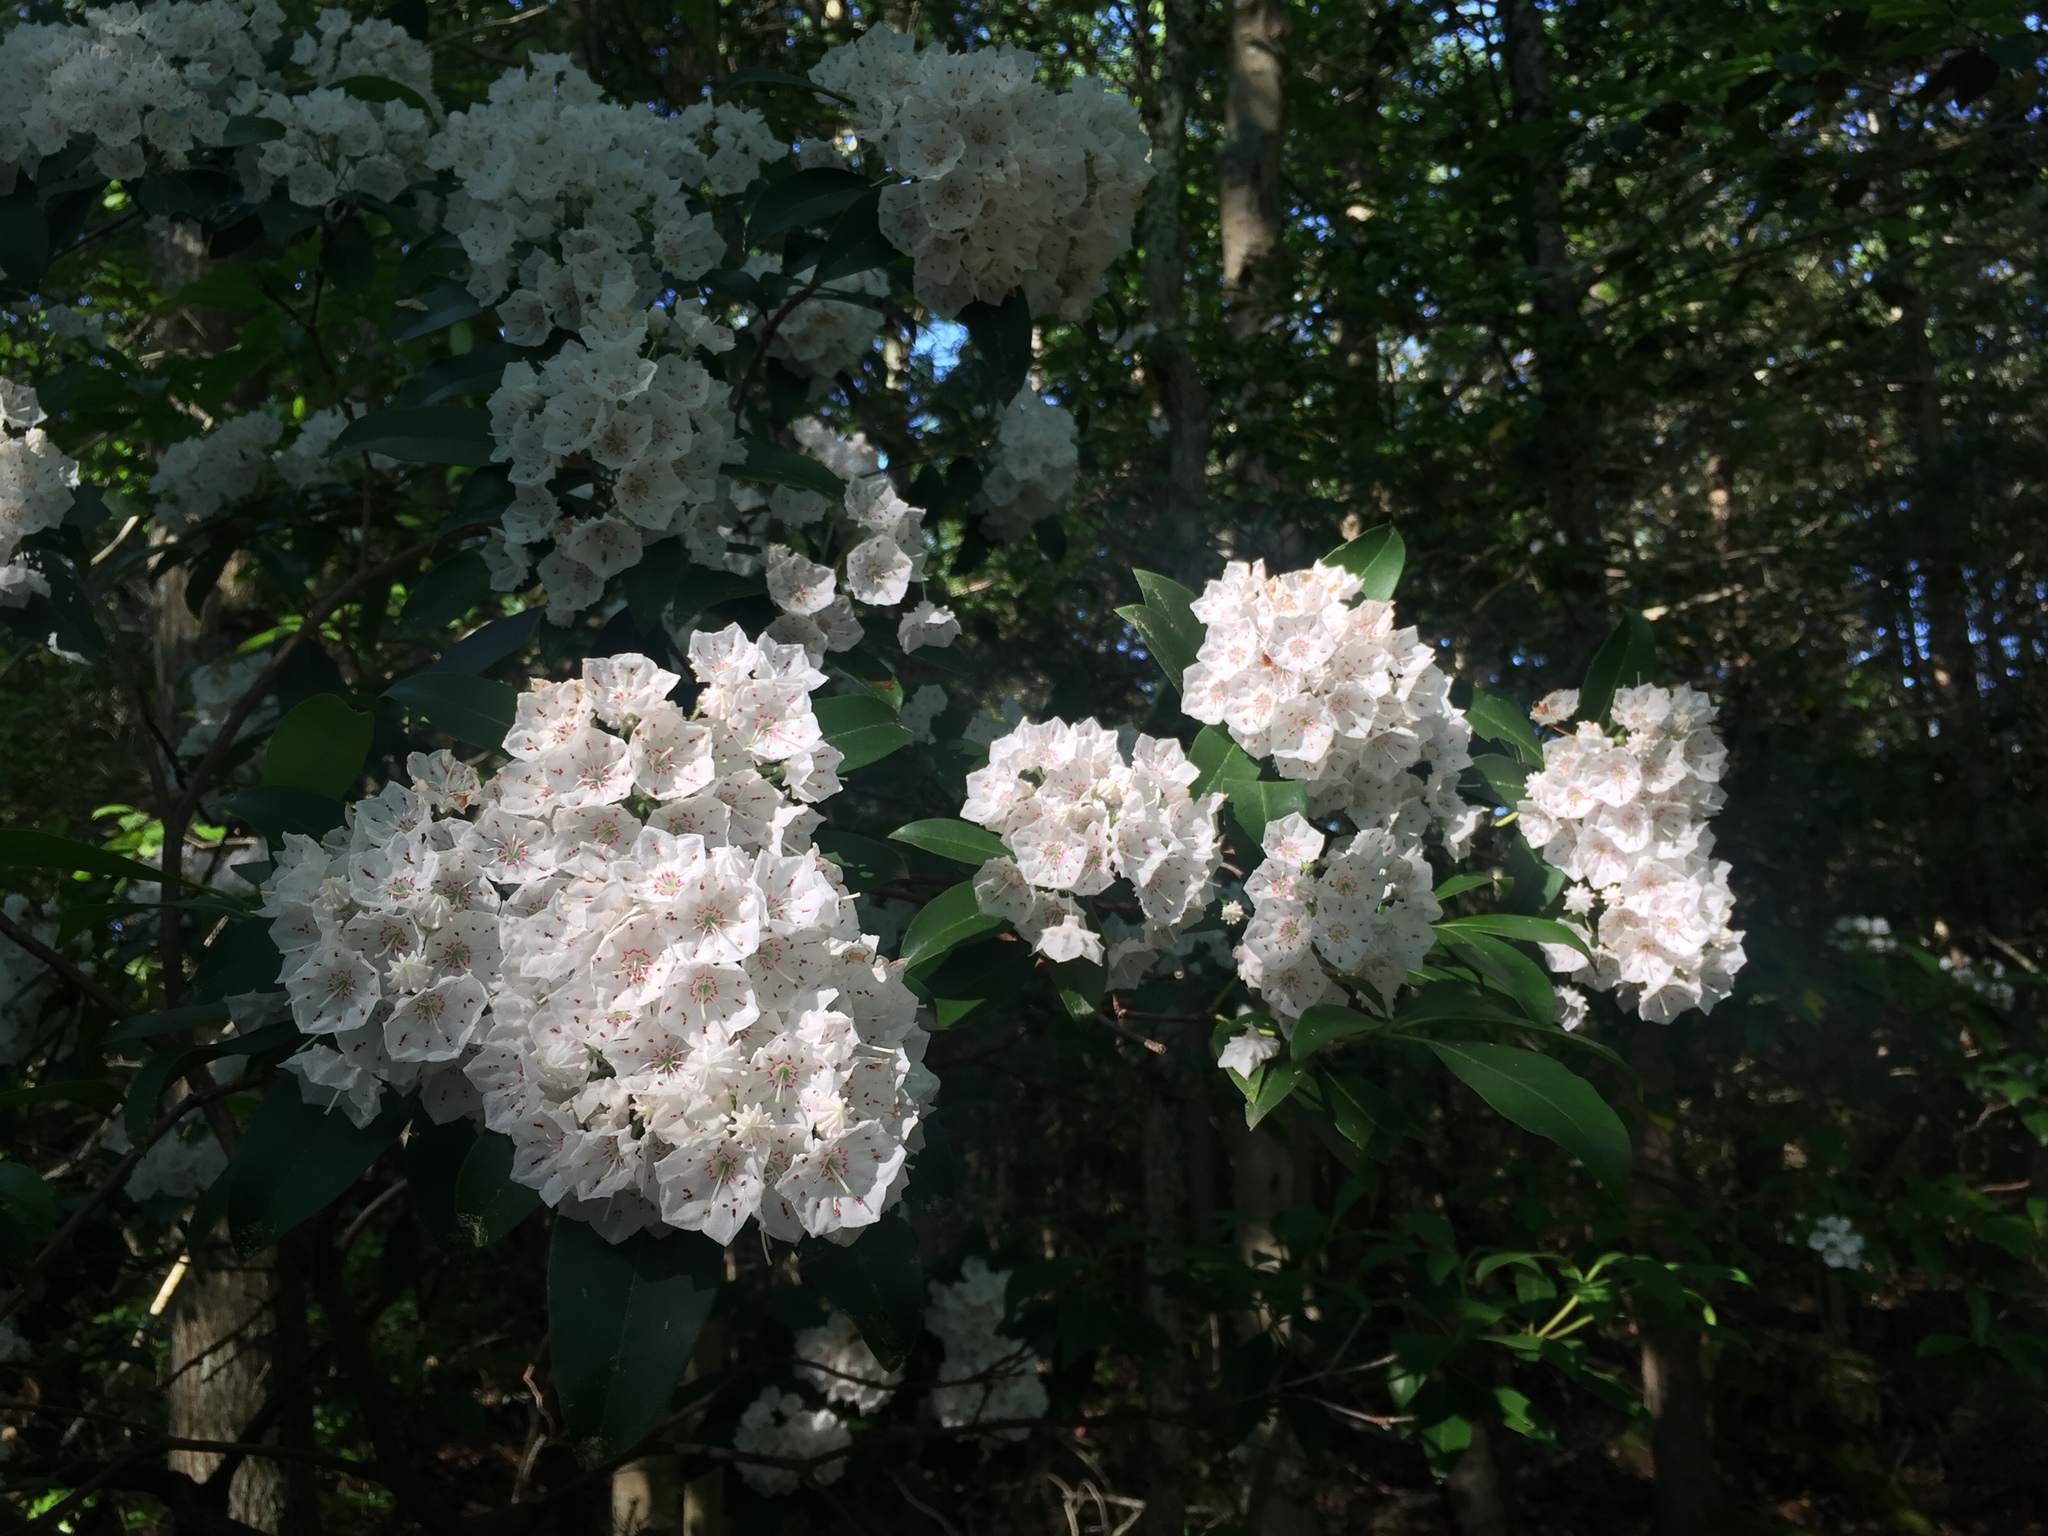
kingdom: Plantae
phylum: Tracheophyta
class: Magnoliopsida
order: Ericales
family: Ericaceae
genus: Kalmia
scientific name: Kalmia latifolia
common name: Mountain-laurel
